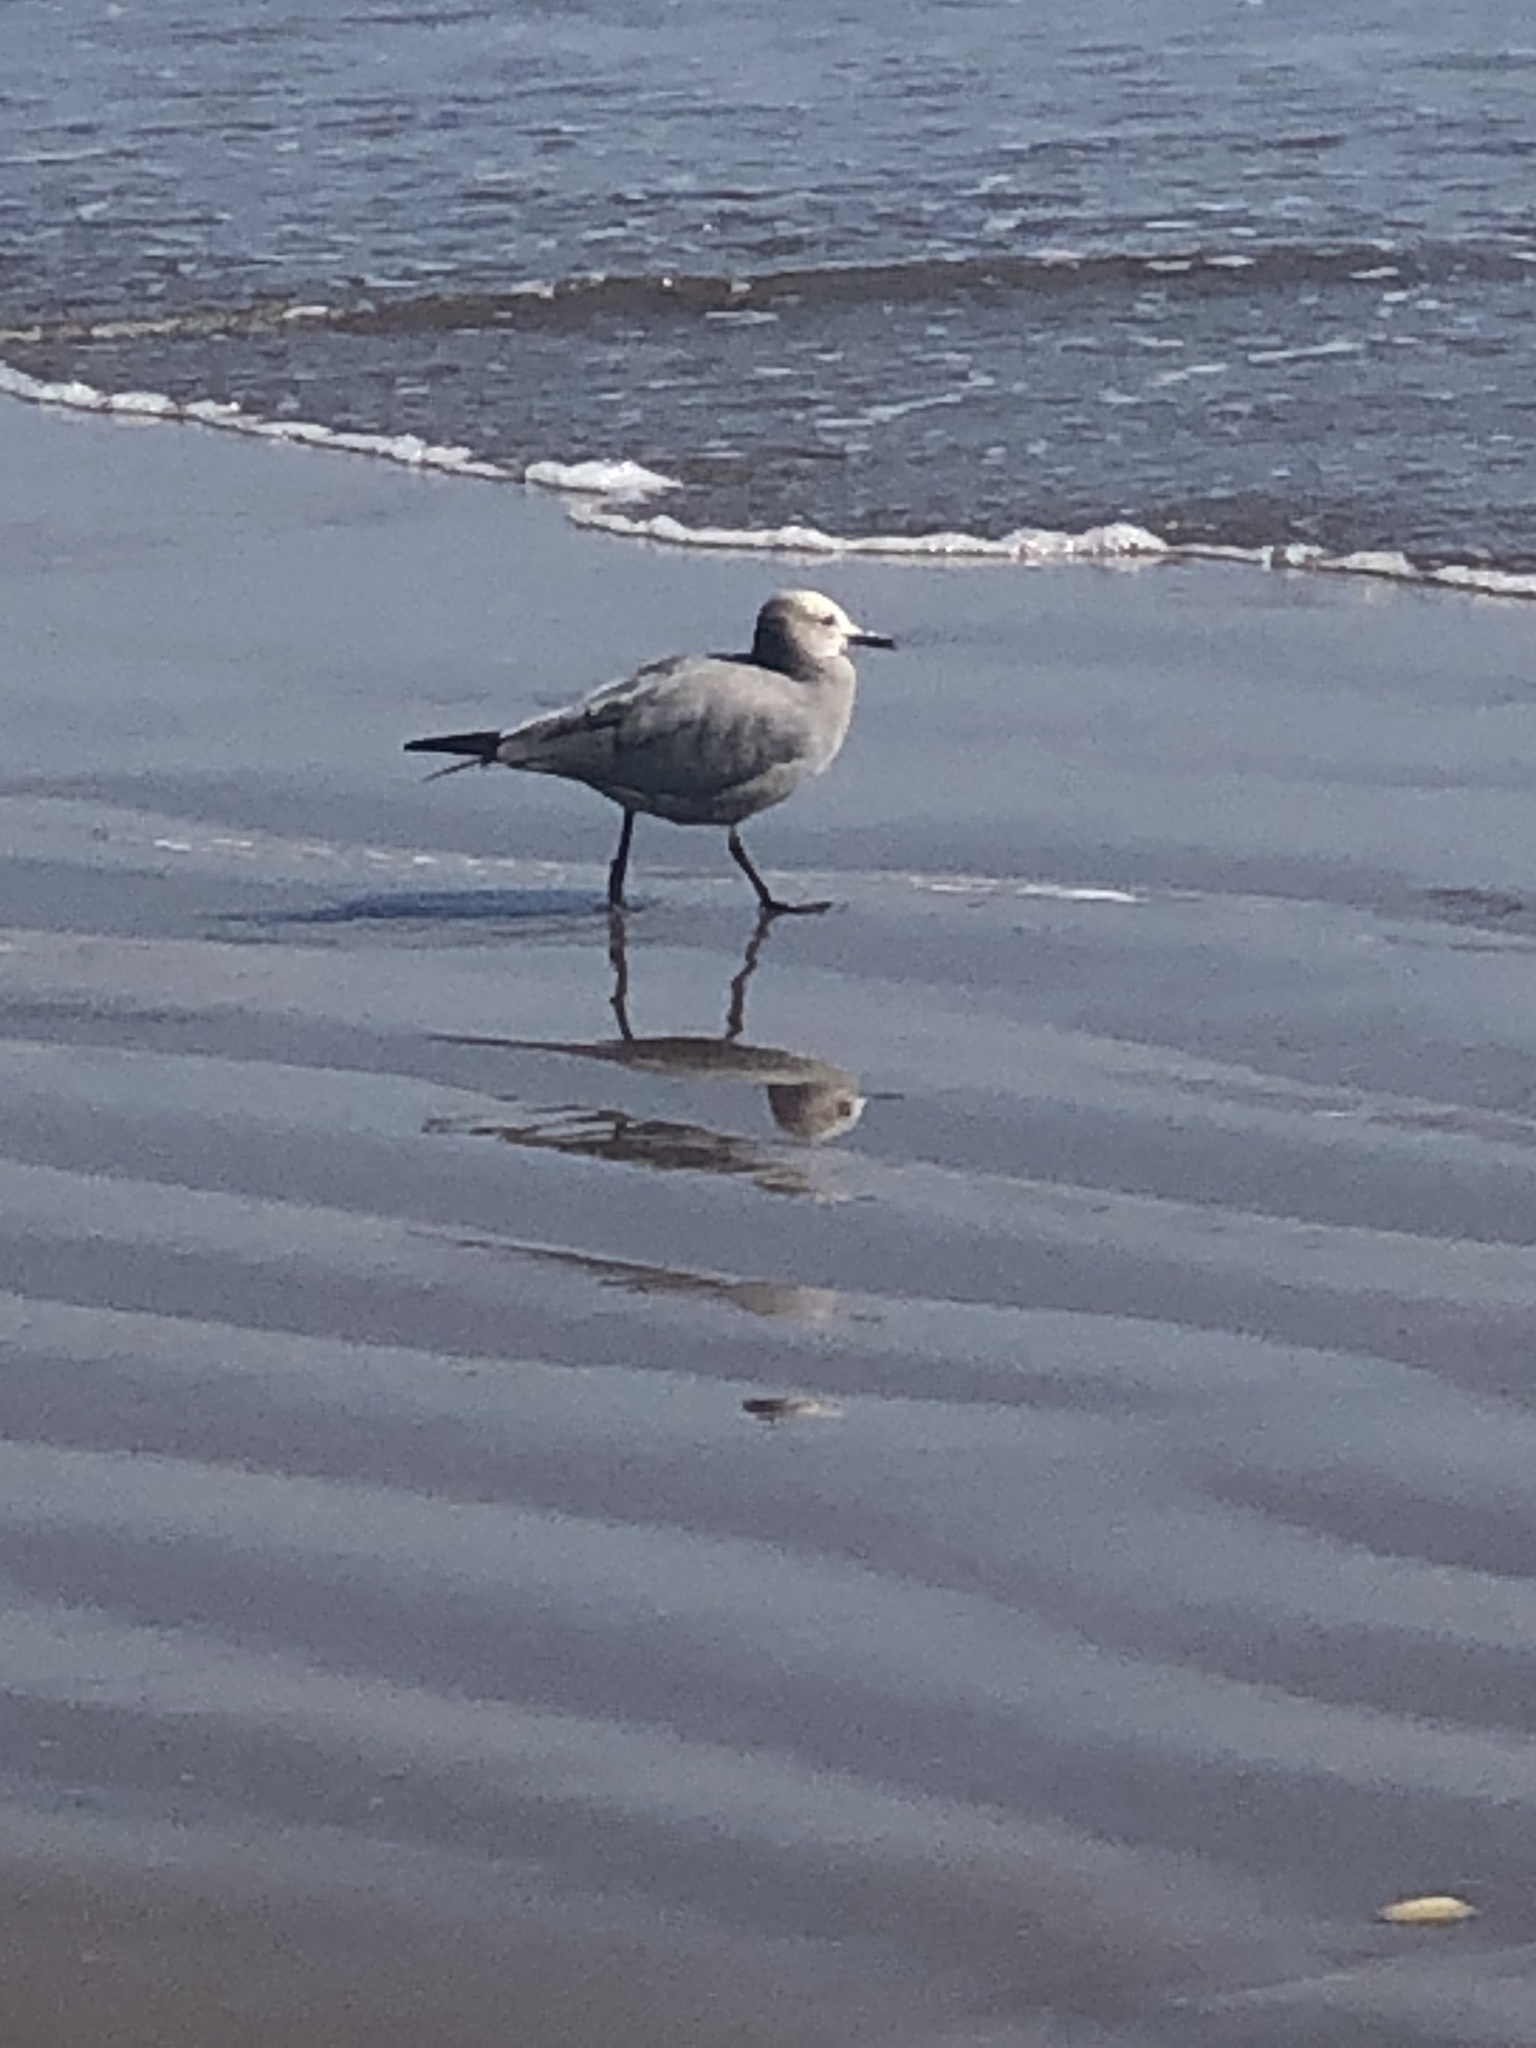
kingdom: Animalia
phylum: Chordata
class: Aves
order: Charadriiformes
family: Laridae
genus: Leucophaeus
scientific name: Leucophaeus modestus
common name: Gray gull
